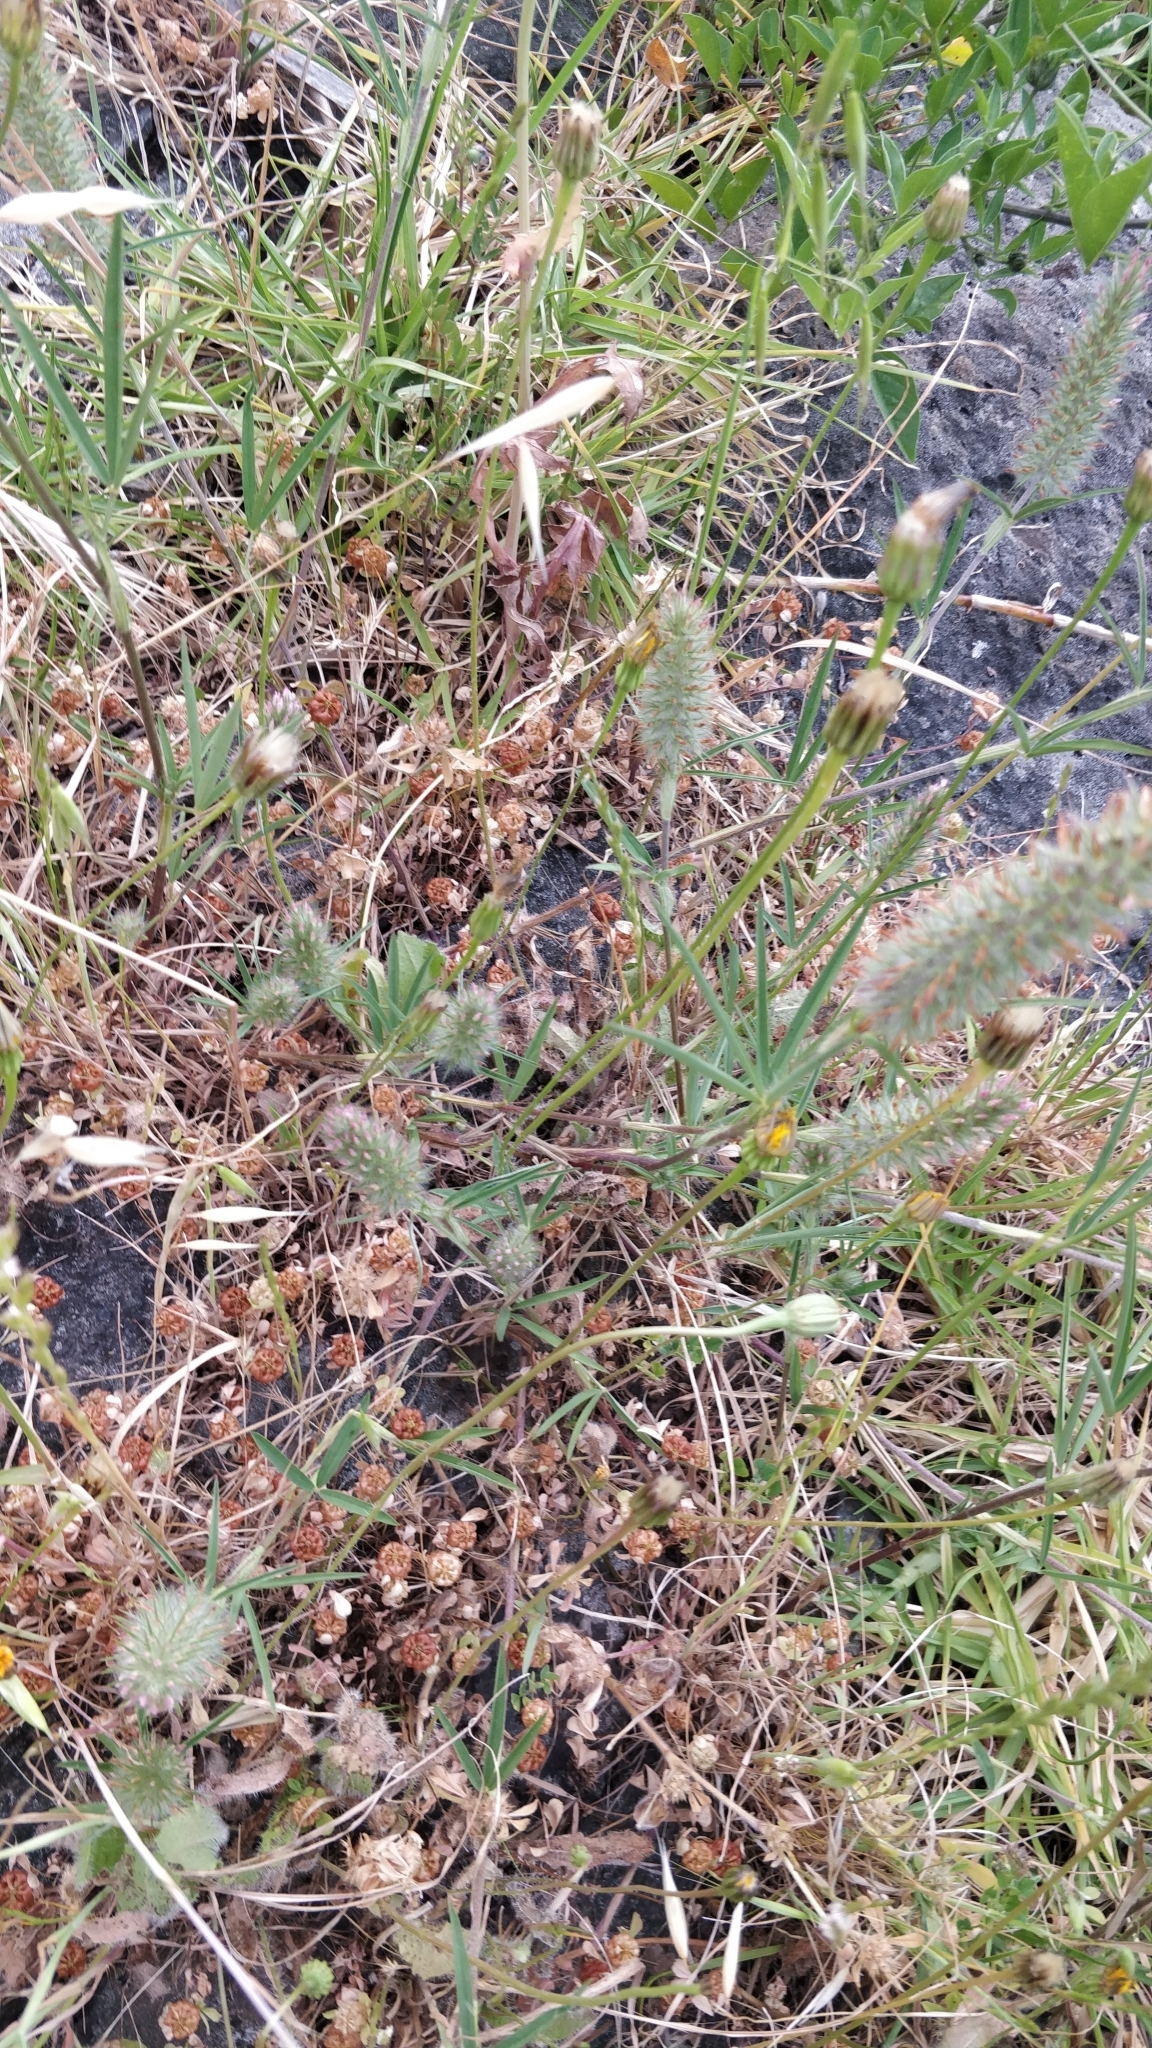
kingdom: Plantae
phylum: Tracheophyta
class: Magnoliopsida
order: Fabales
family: Fabaceae
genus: Trifolium
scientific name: Trifolium angustifolium
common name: Narrow clover
